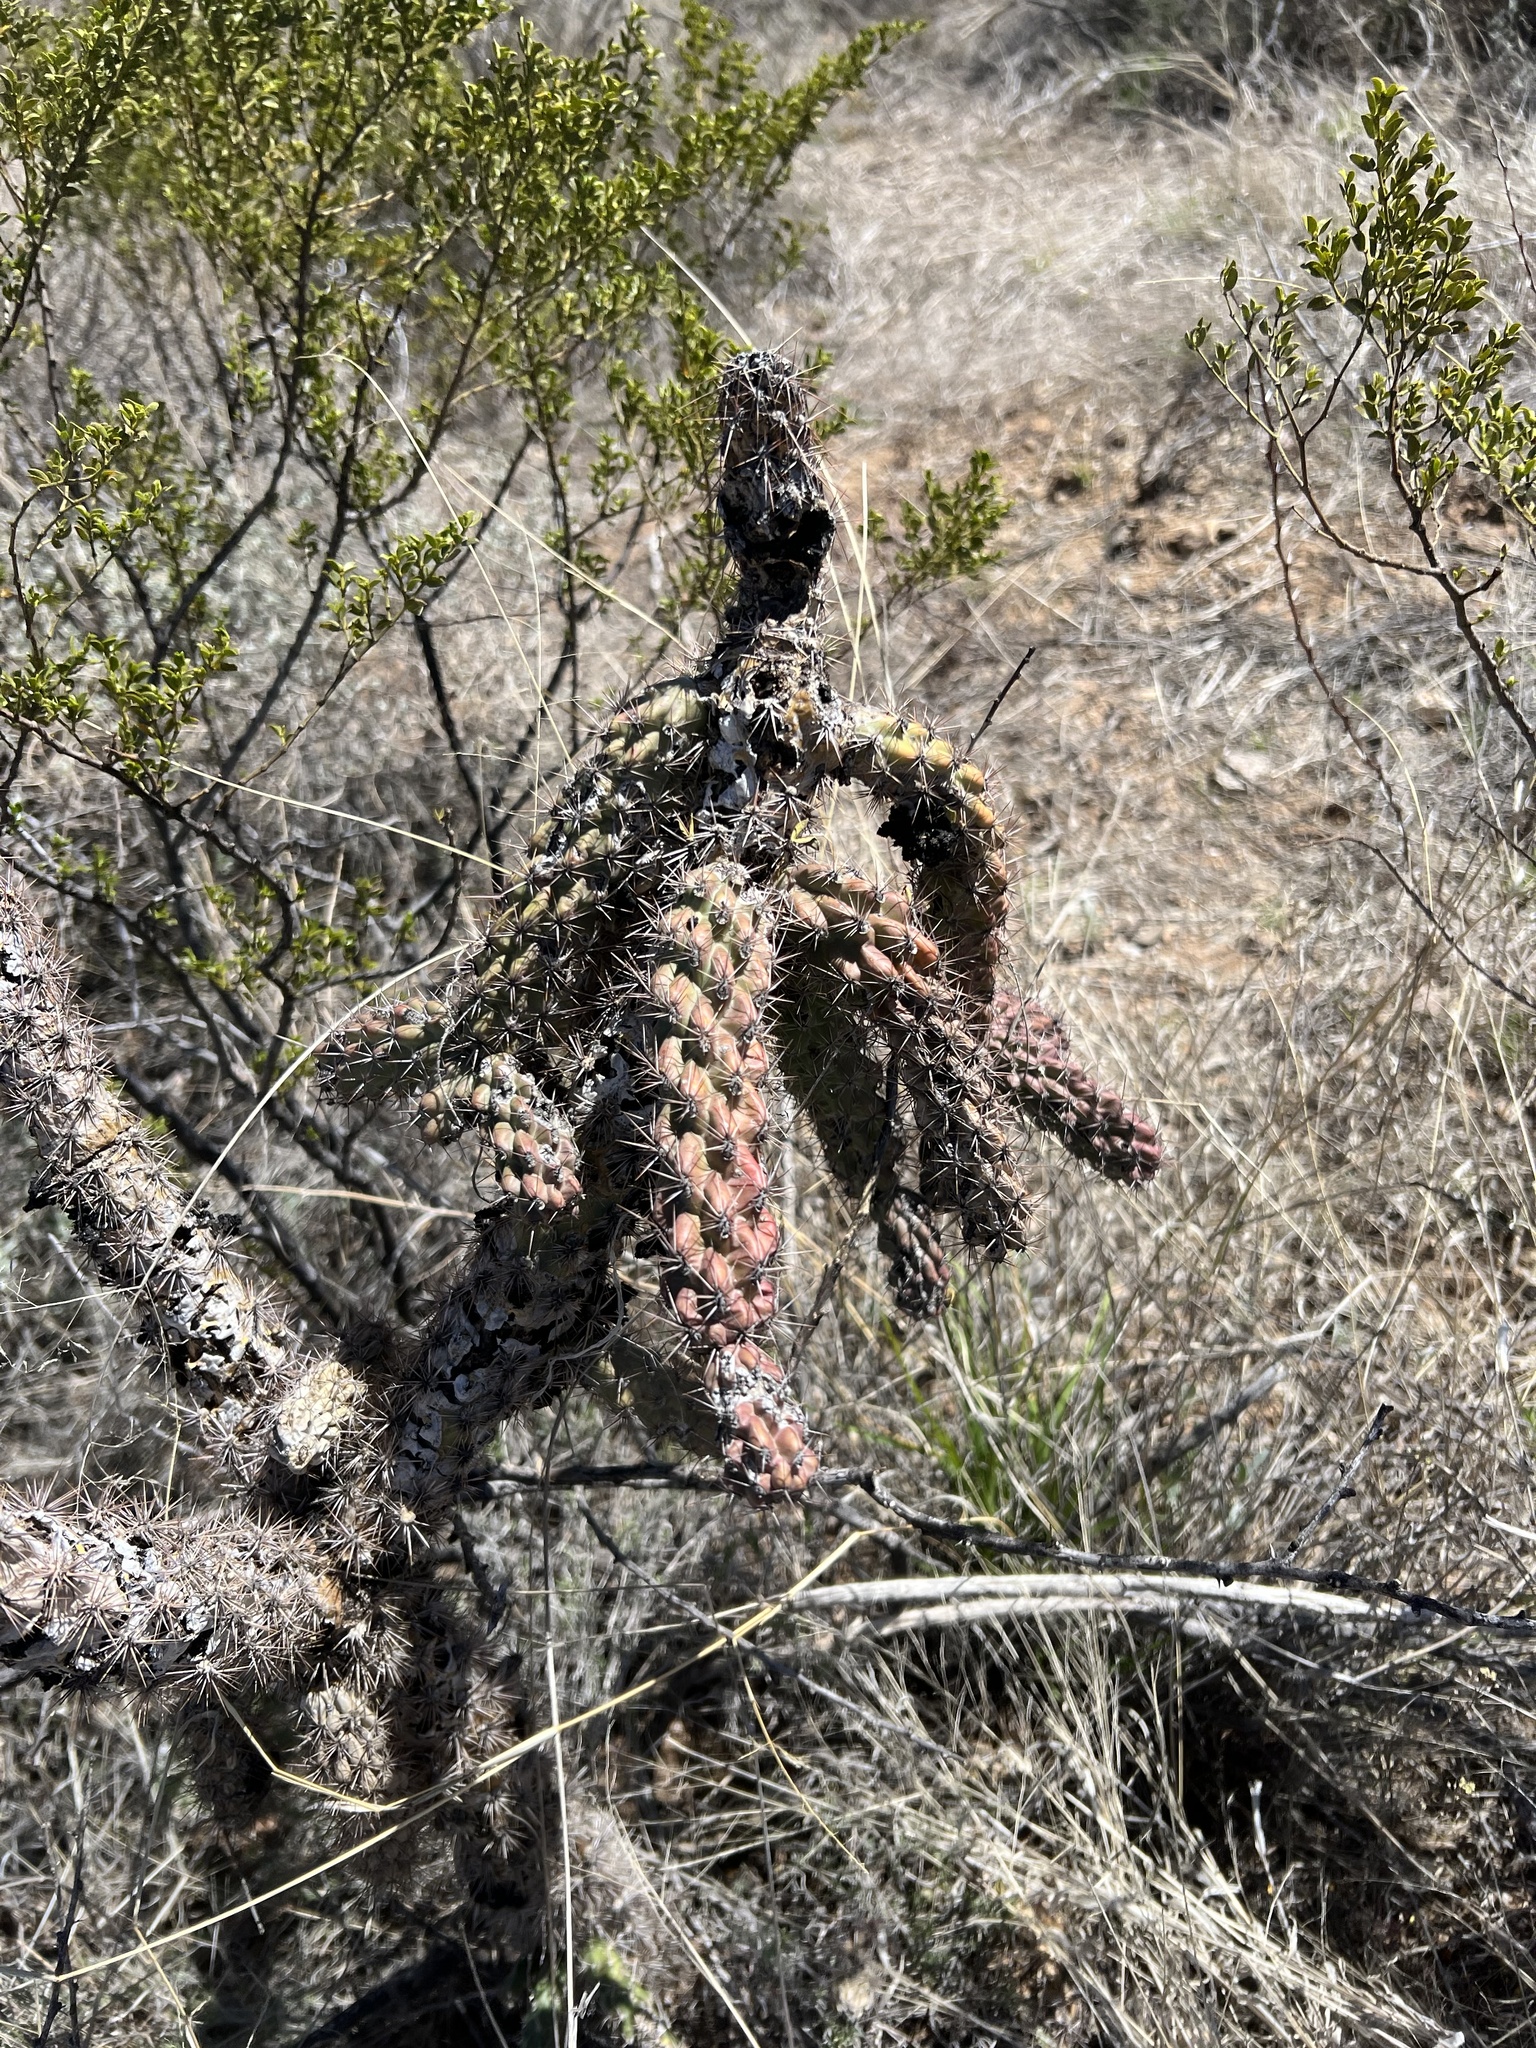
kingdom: Plantae
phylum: Tracheophyta
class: Magnoliopsida
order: Caryophyllales
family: Cactaceae
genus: Cylindropuntia
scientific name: Cylindropuntia imbricata
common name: Candelabrum cactus
